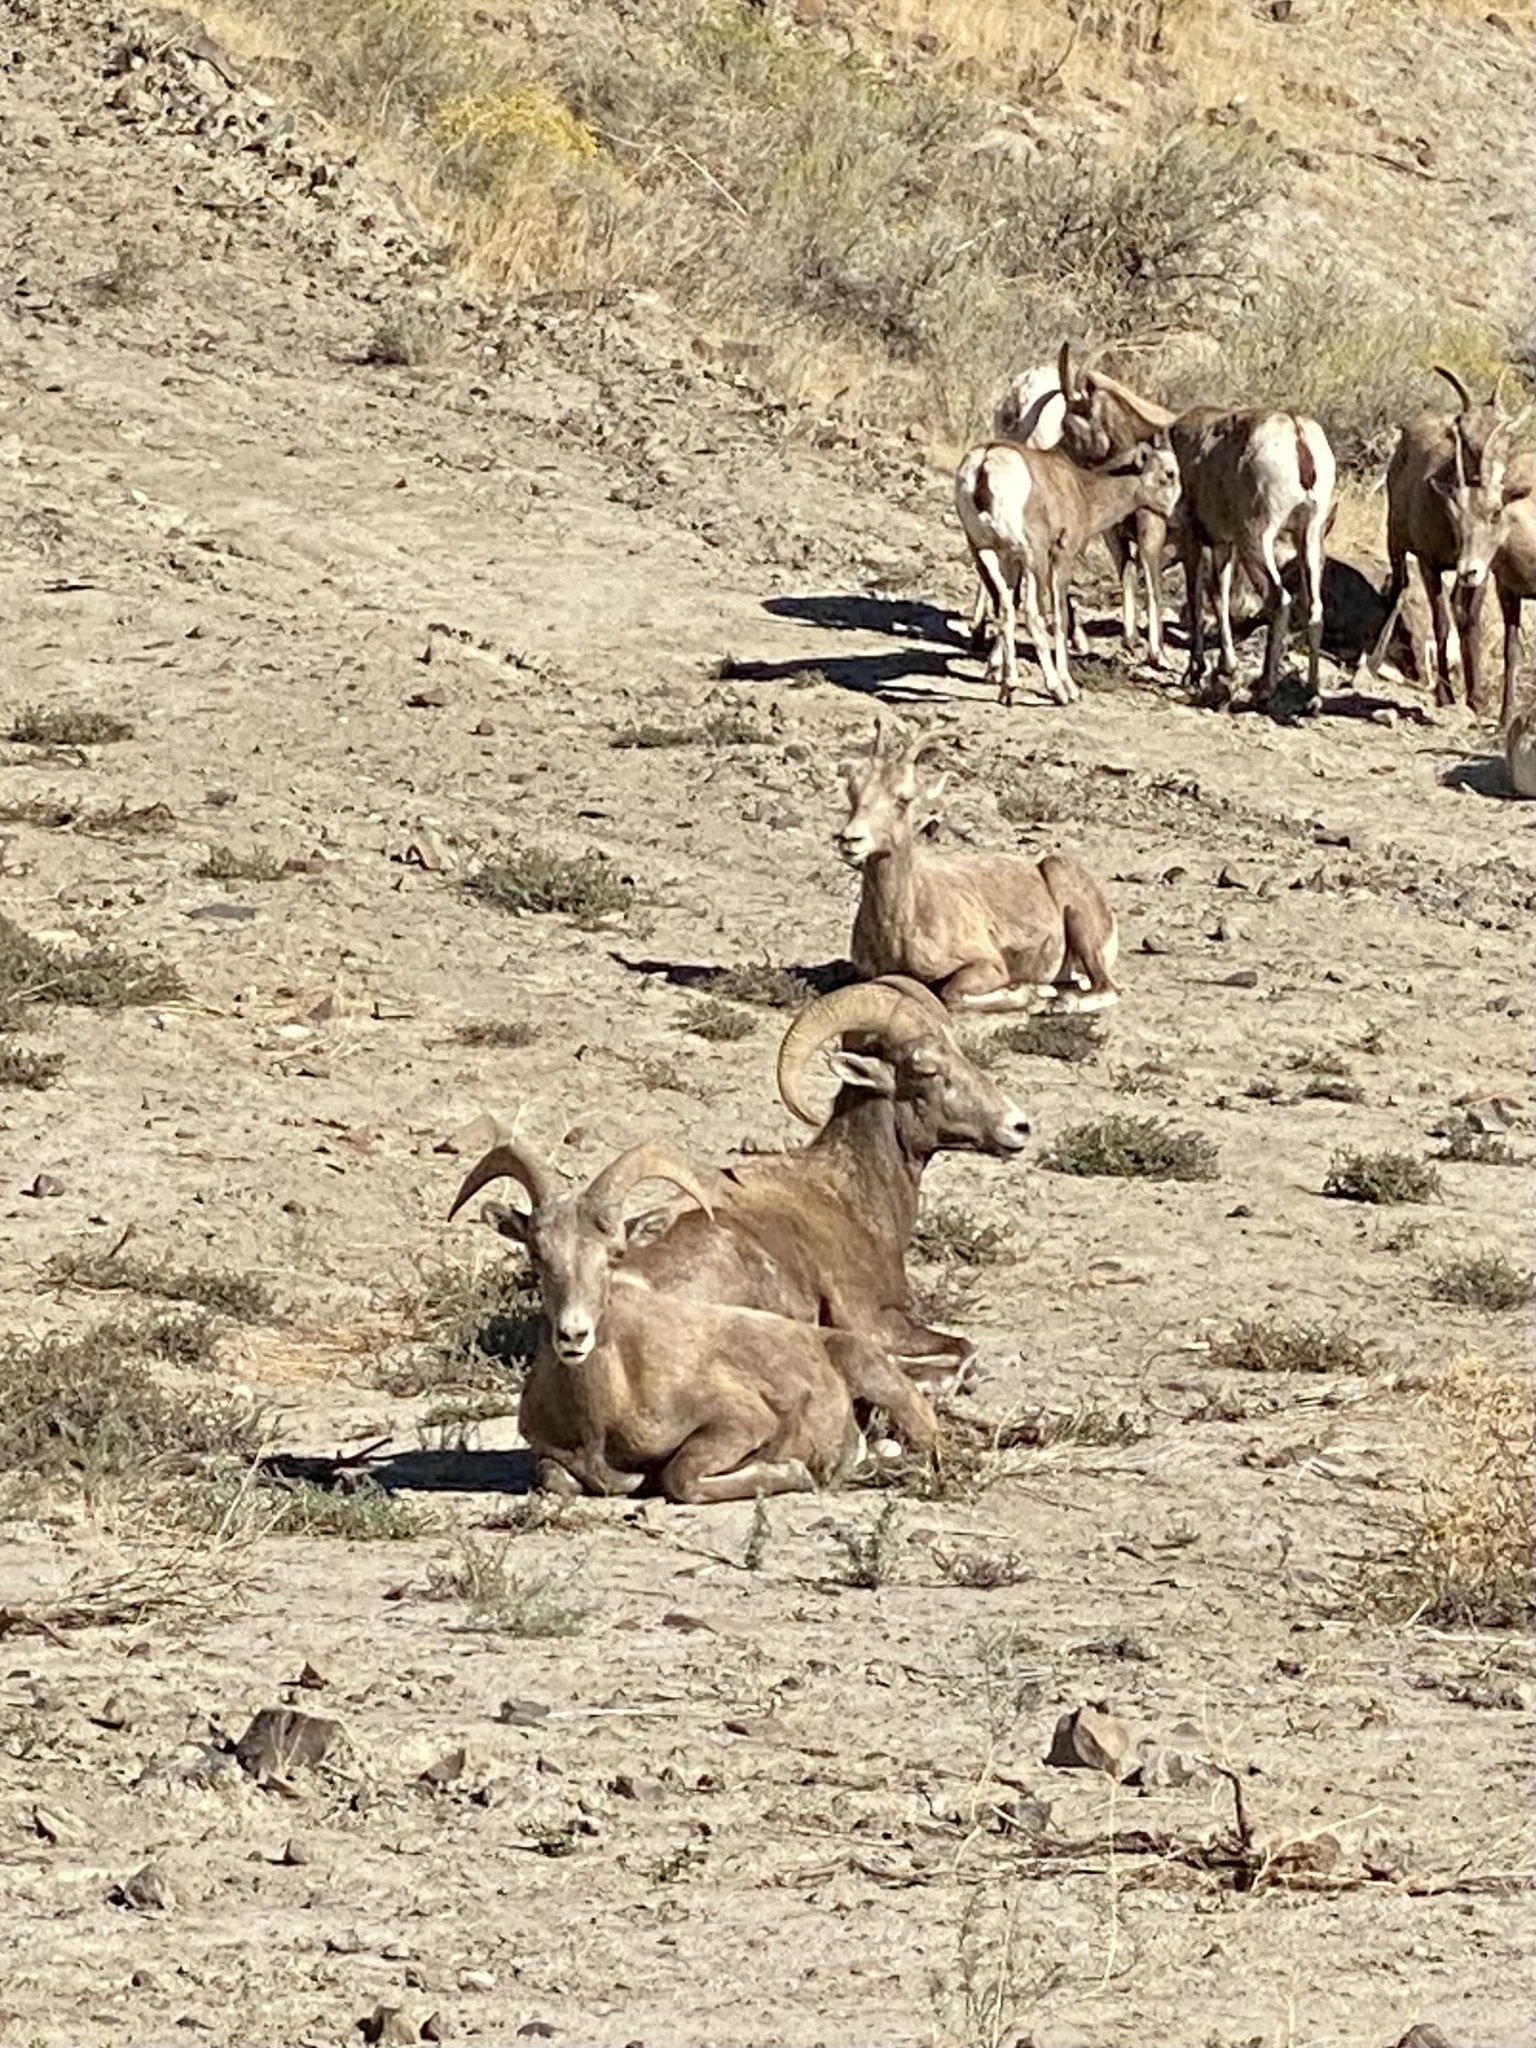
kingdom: Animalia
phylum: Chordata
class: Mammalia
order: Artiodactyla
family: Bovidae
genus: Ovis
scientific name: Ovis canadensis
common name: Bighorn sheep
